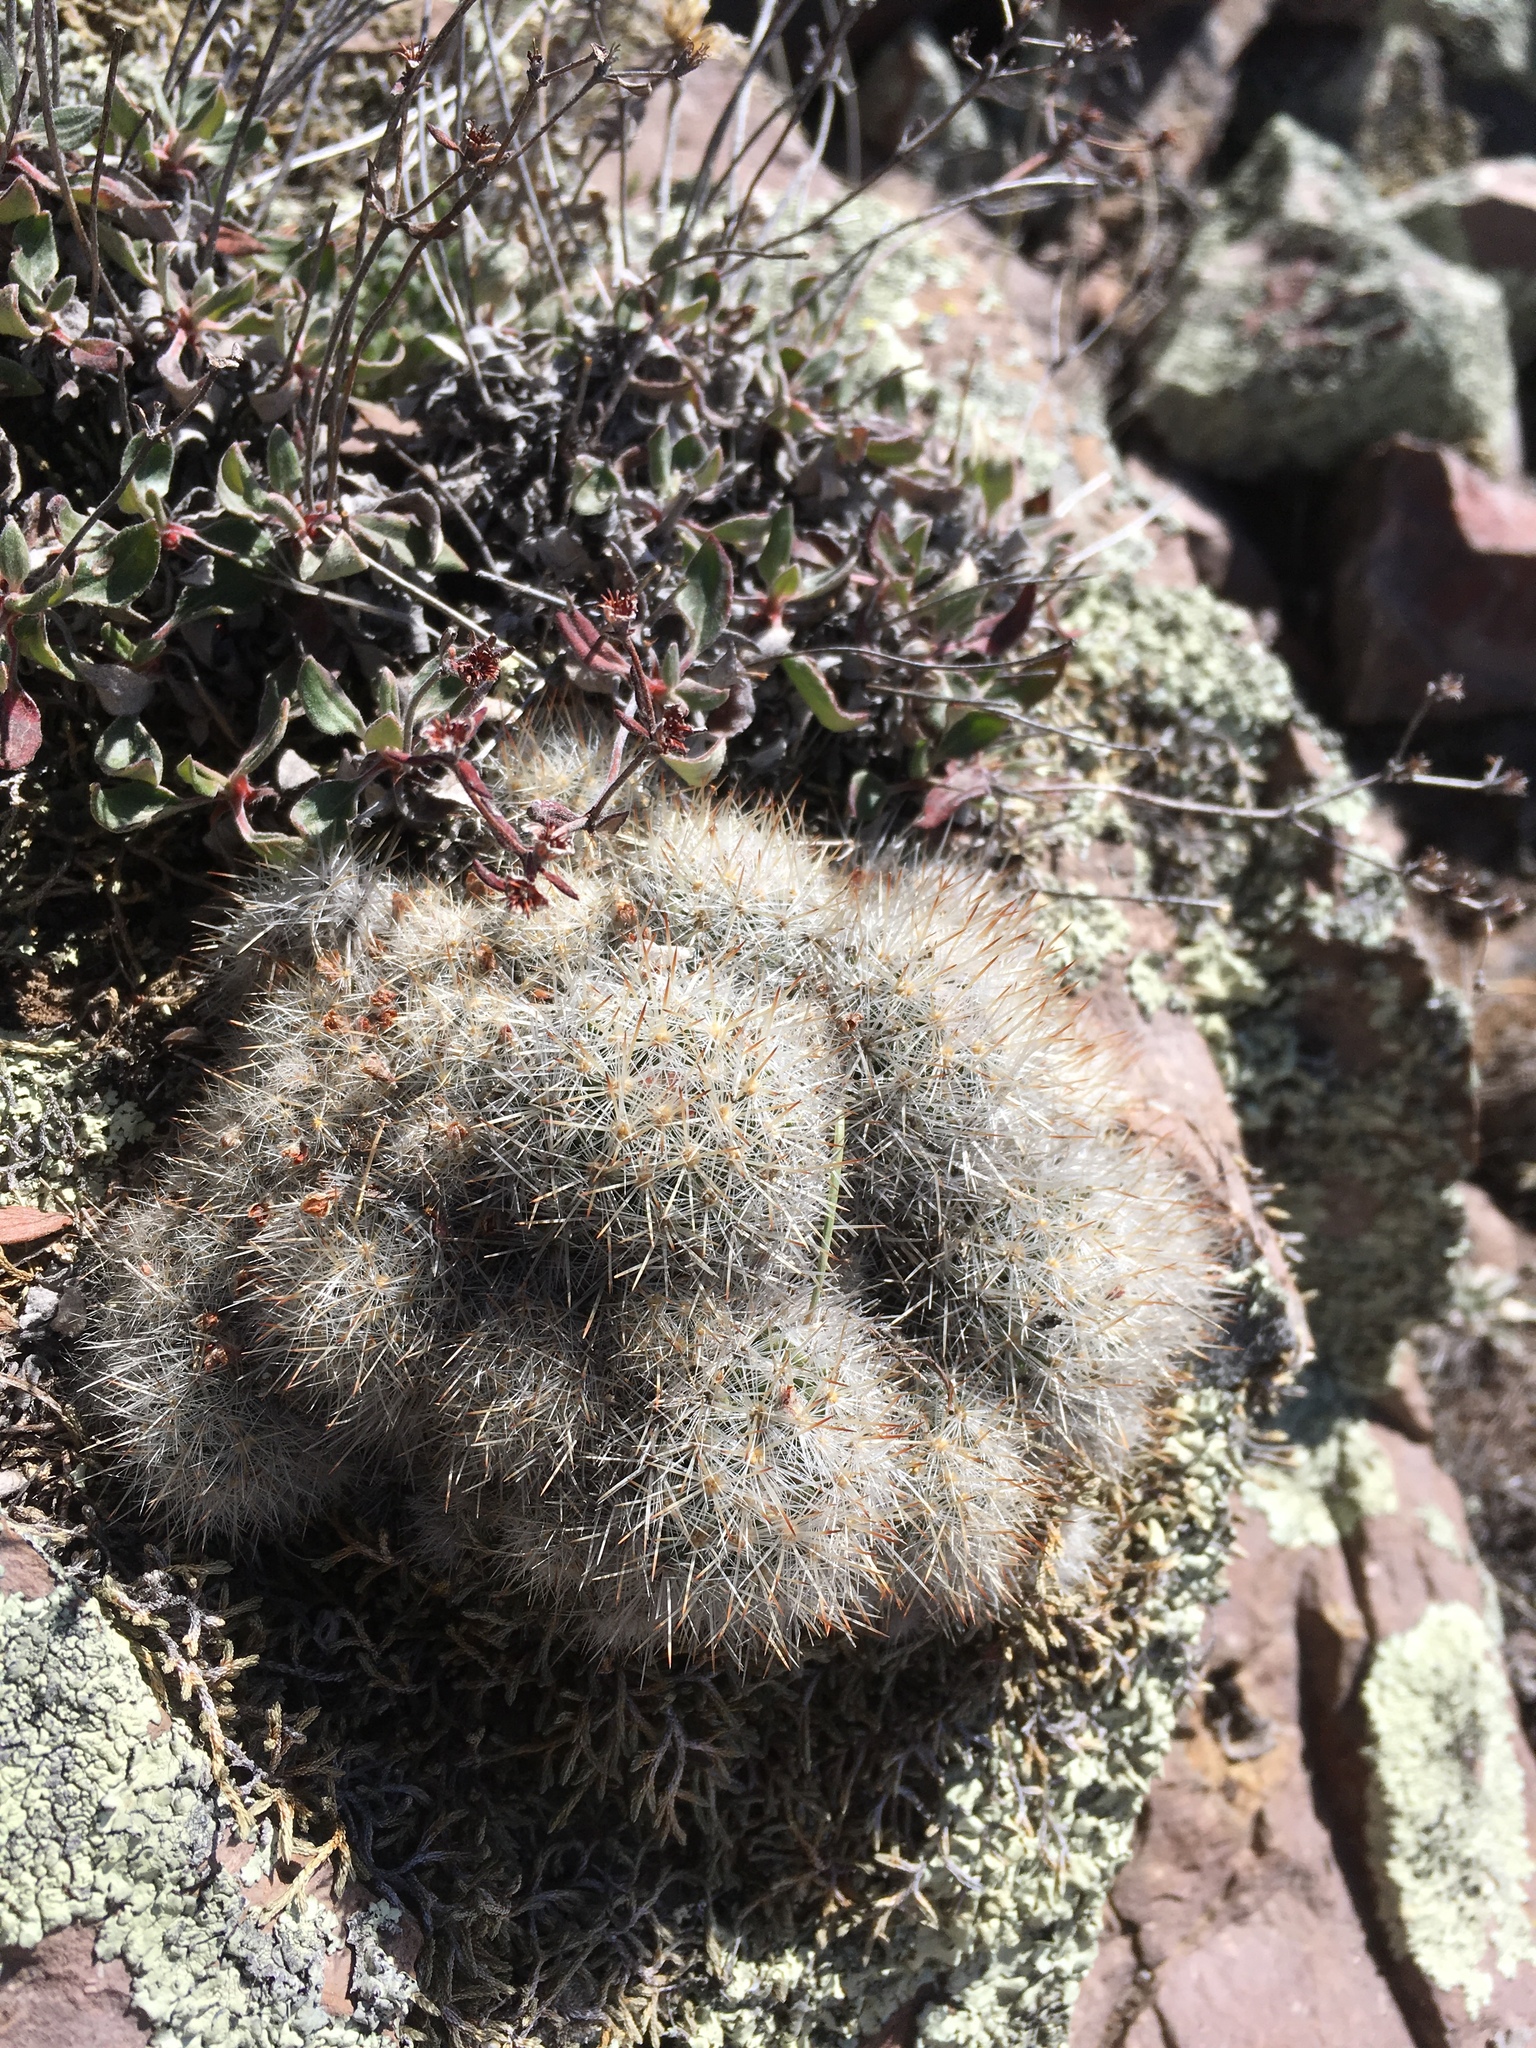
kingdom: Plantae
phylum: Tracheophyta
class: Magnoliopsida
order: Caryophyllales
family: Cactaceae
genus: Pelecyphora
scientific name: Pelecyphora sneedii
